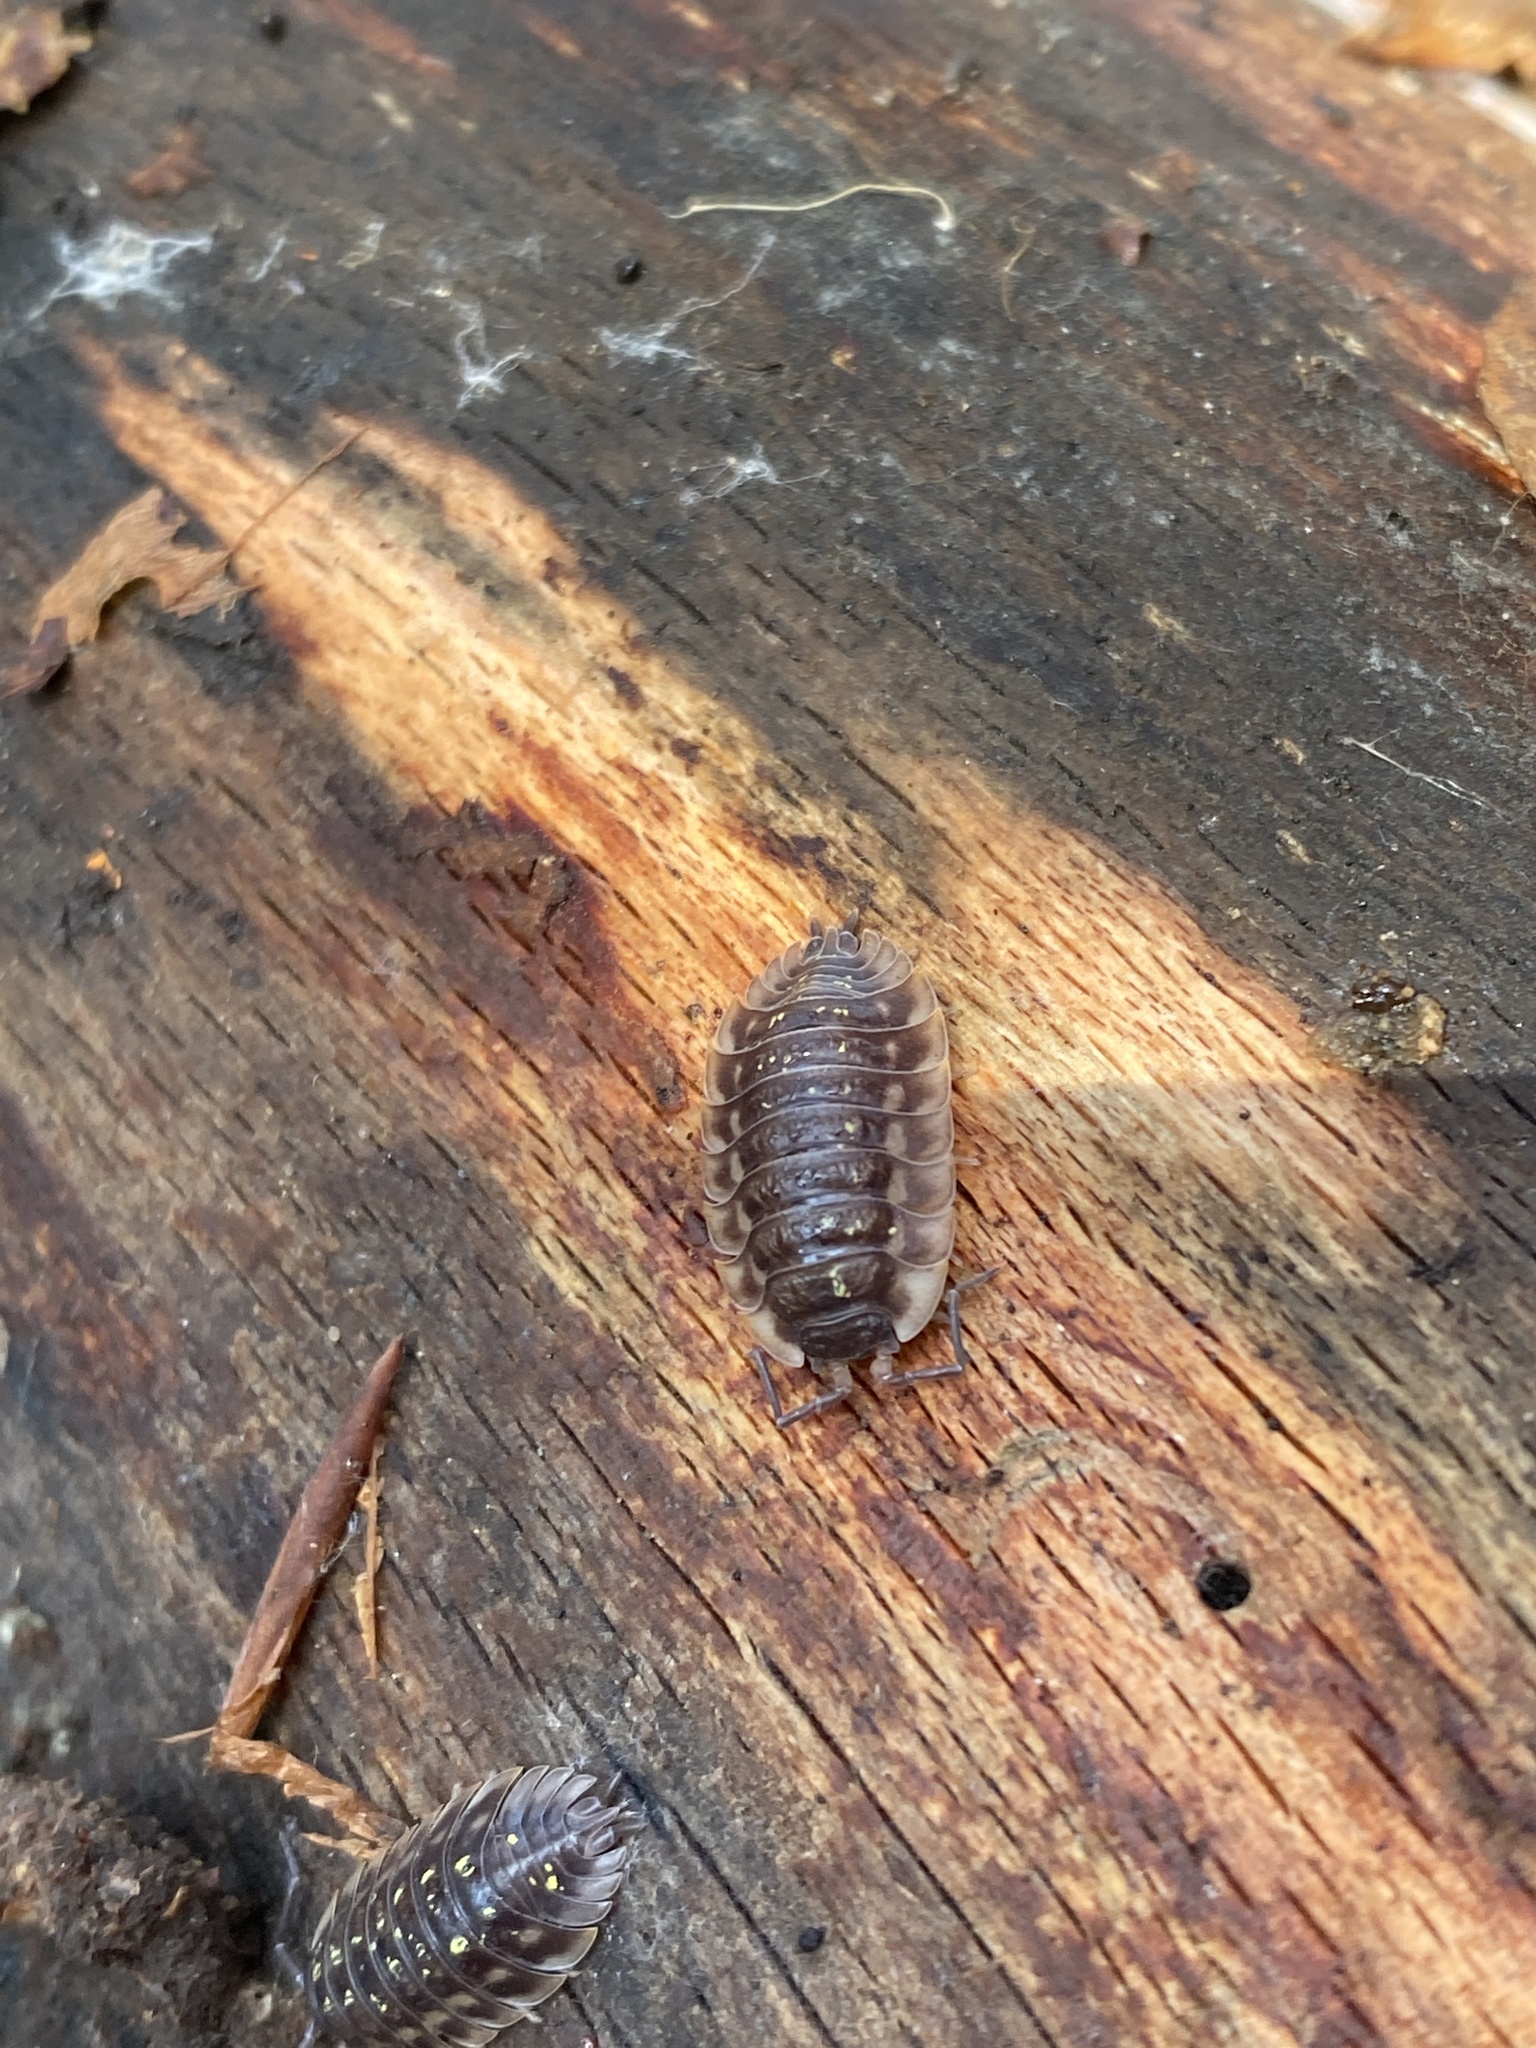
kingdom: Animalia
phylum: Arthropoda
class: Malacostraca
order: Isopoda
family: Oniscidae
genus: Oniscus
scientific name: Oniscus asellus
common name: Common shiny woodlouse
